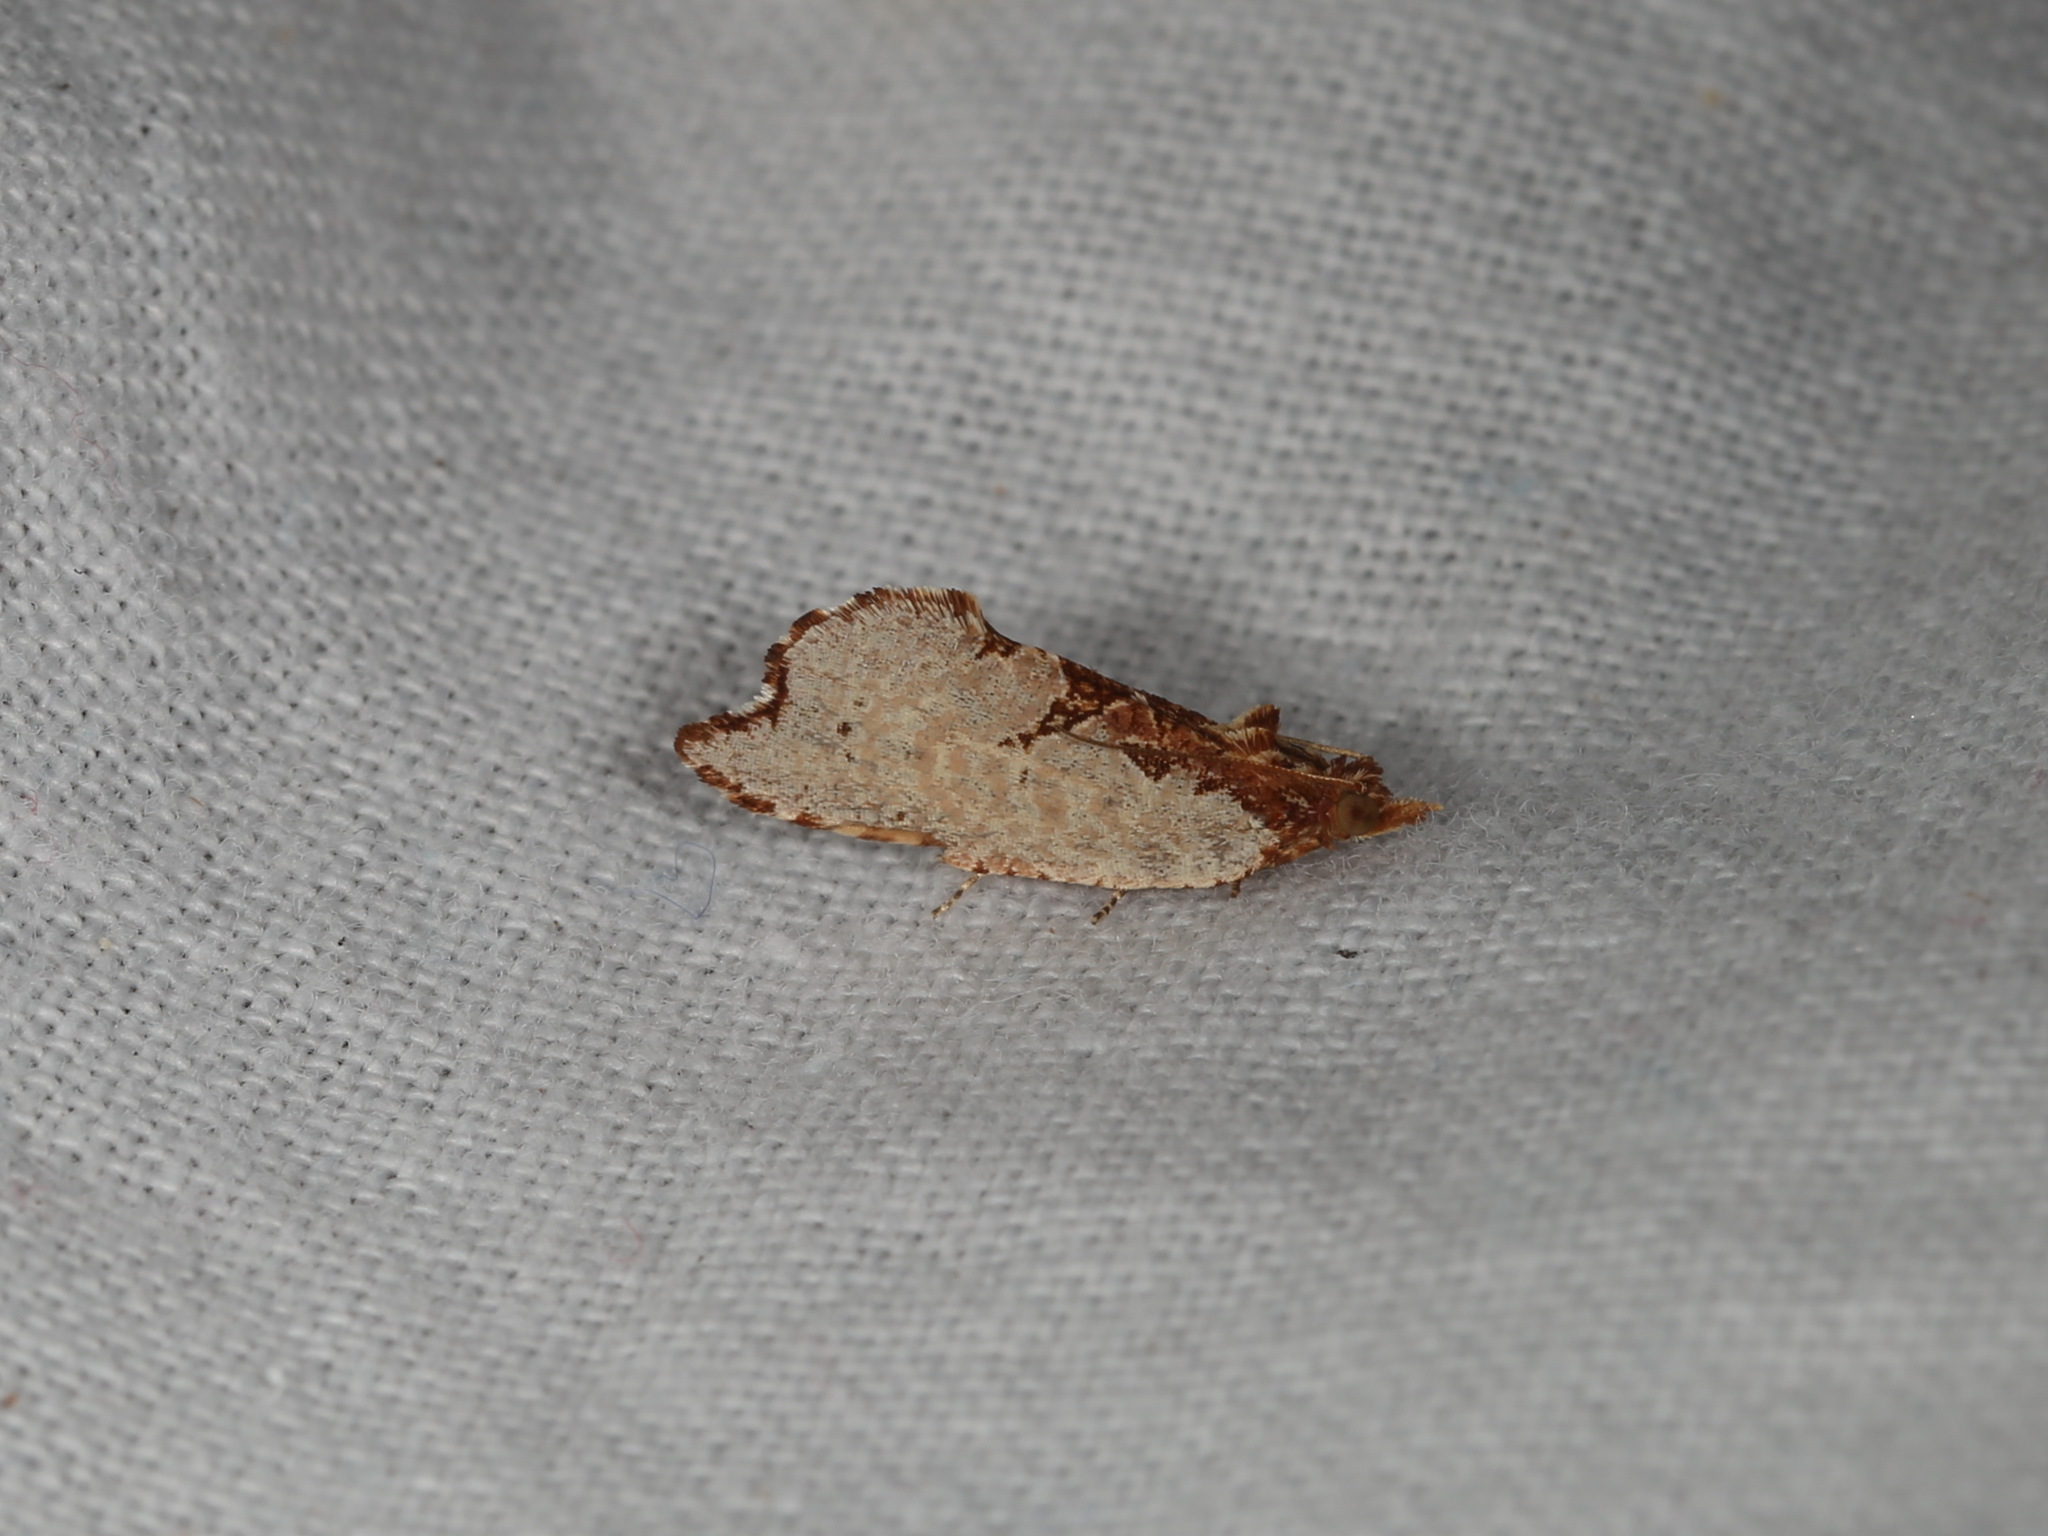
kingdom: Animalia
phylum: Arthropoda
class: Insecta
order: Lepidoptera
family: Tortricidae
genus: Glyphidoptera
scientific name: Glyphidoptera polymita
